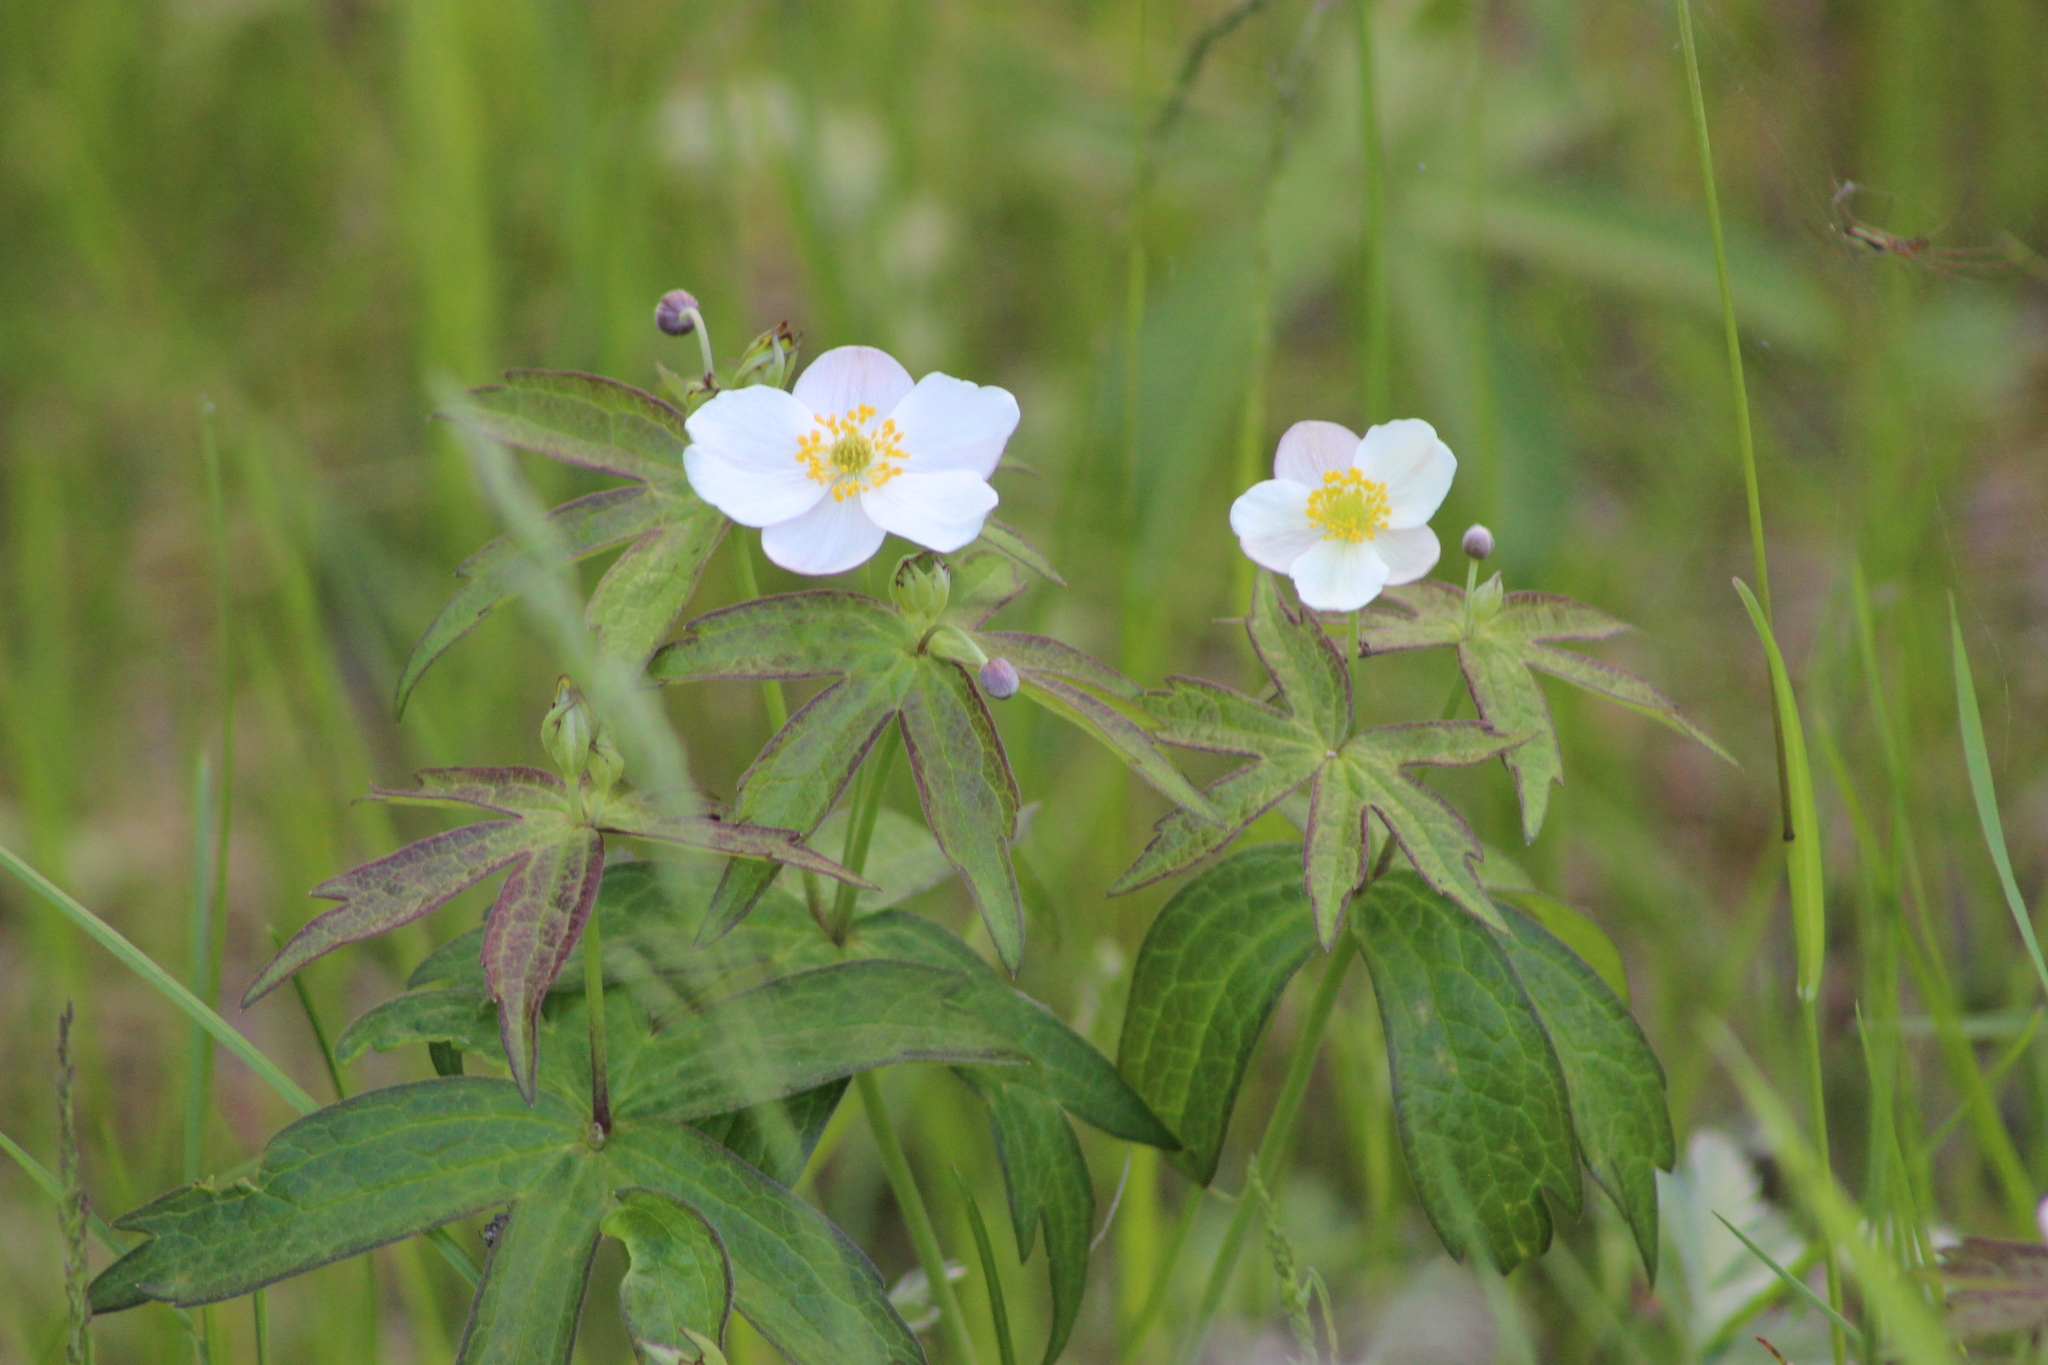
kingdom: Plantae
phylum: Tracheophyta
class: Magnoliopsida
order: Ranunculales
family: Ranunculaceae
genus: Anemonastrum
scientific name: Anemonastrum dichotomum
